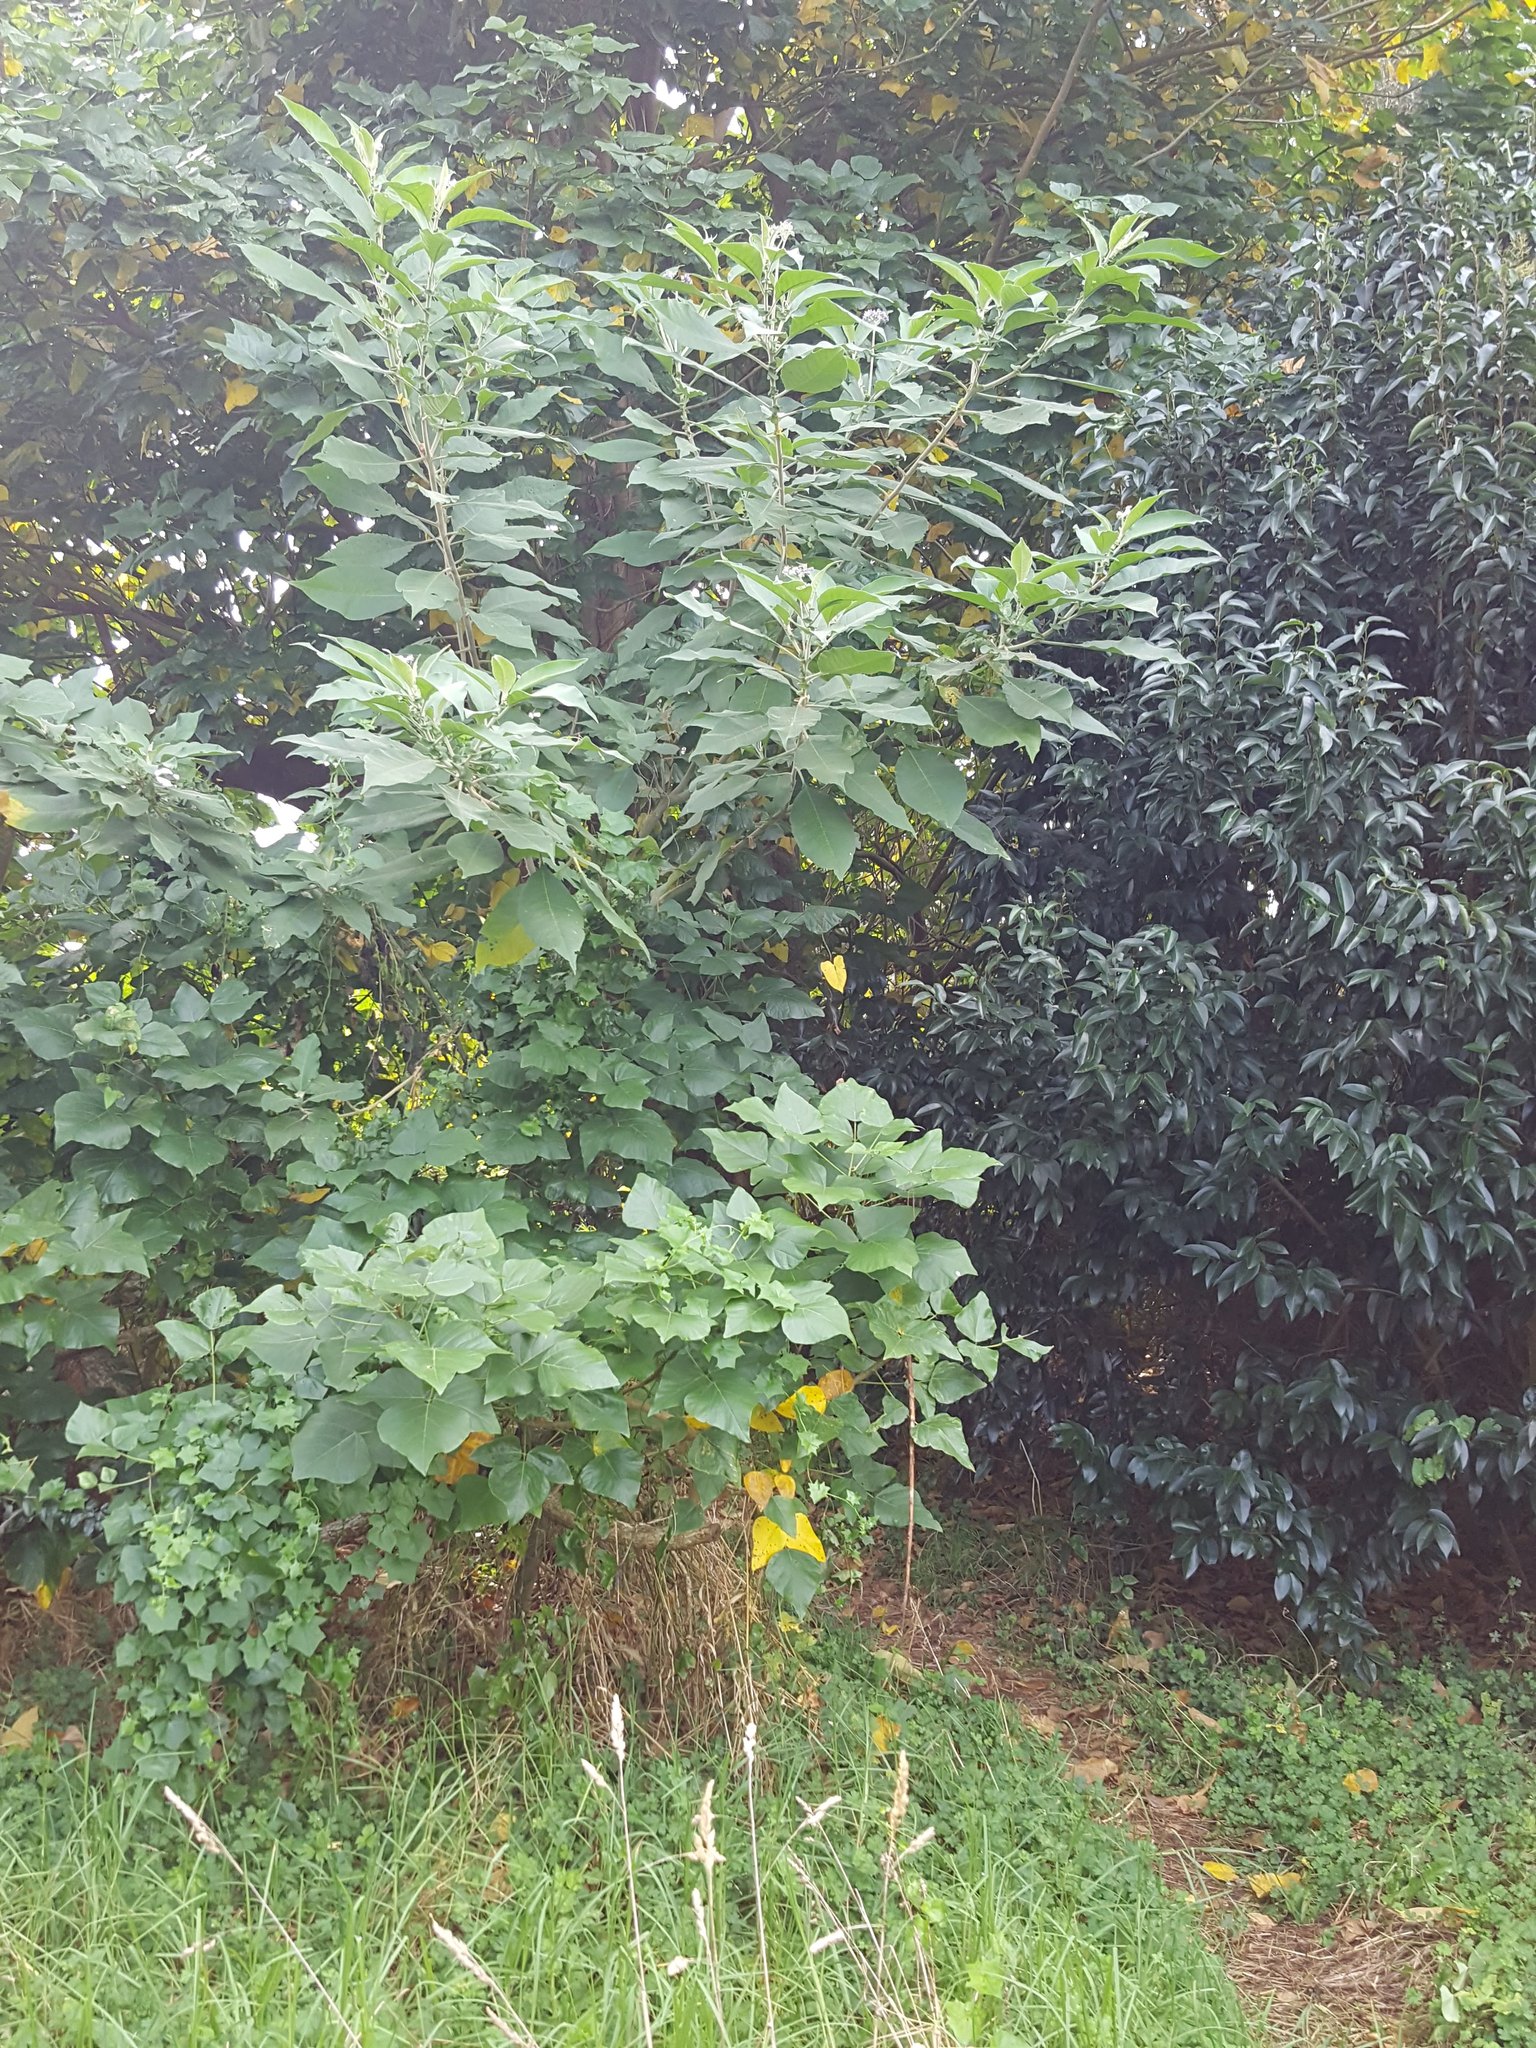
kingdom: Plantae
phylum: Tracheophyta
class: Magnoliopsida
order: Solanales
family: Solanaceae
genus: Solanum
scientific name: Solanum mauritianum
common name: Earleaf nightshade
